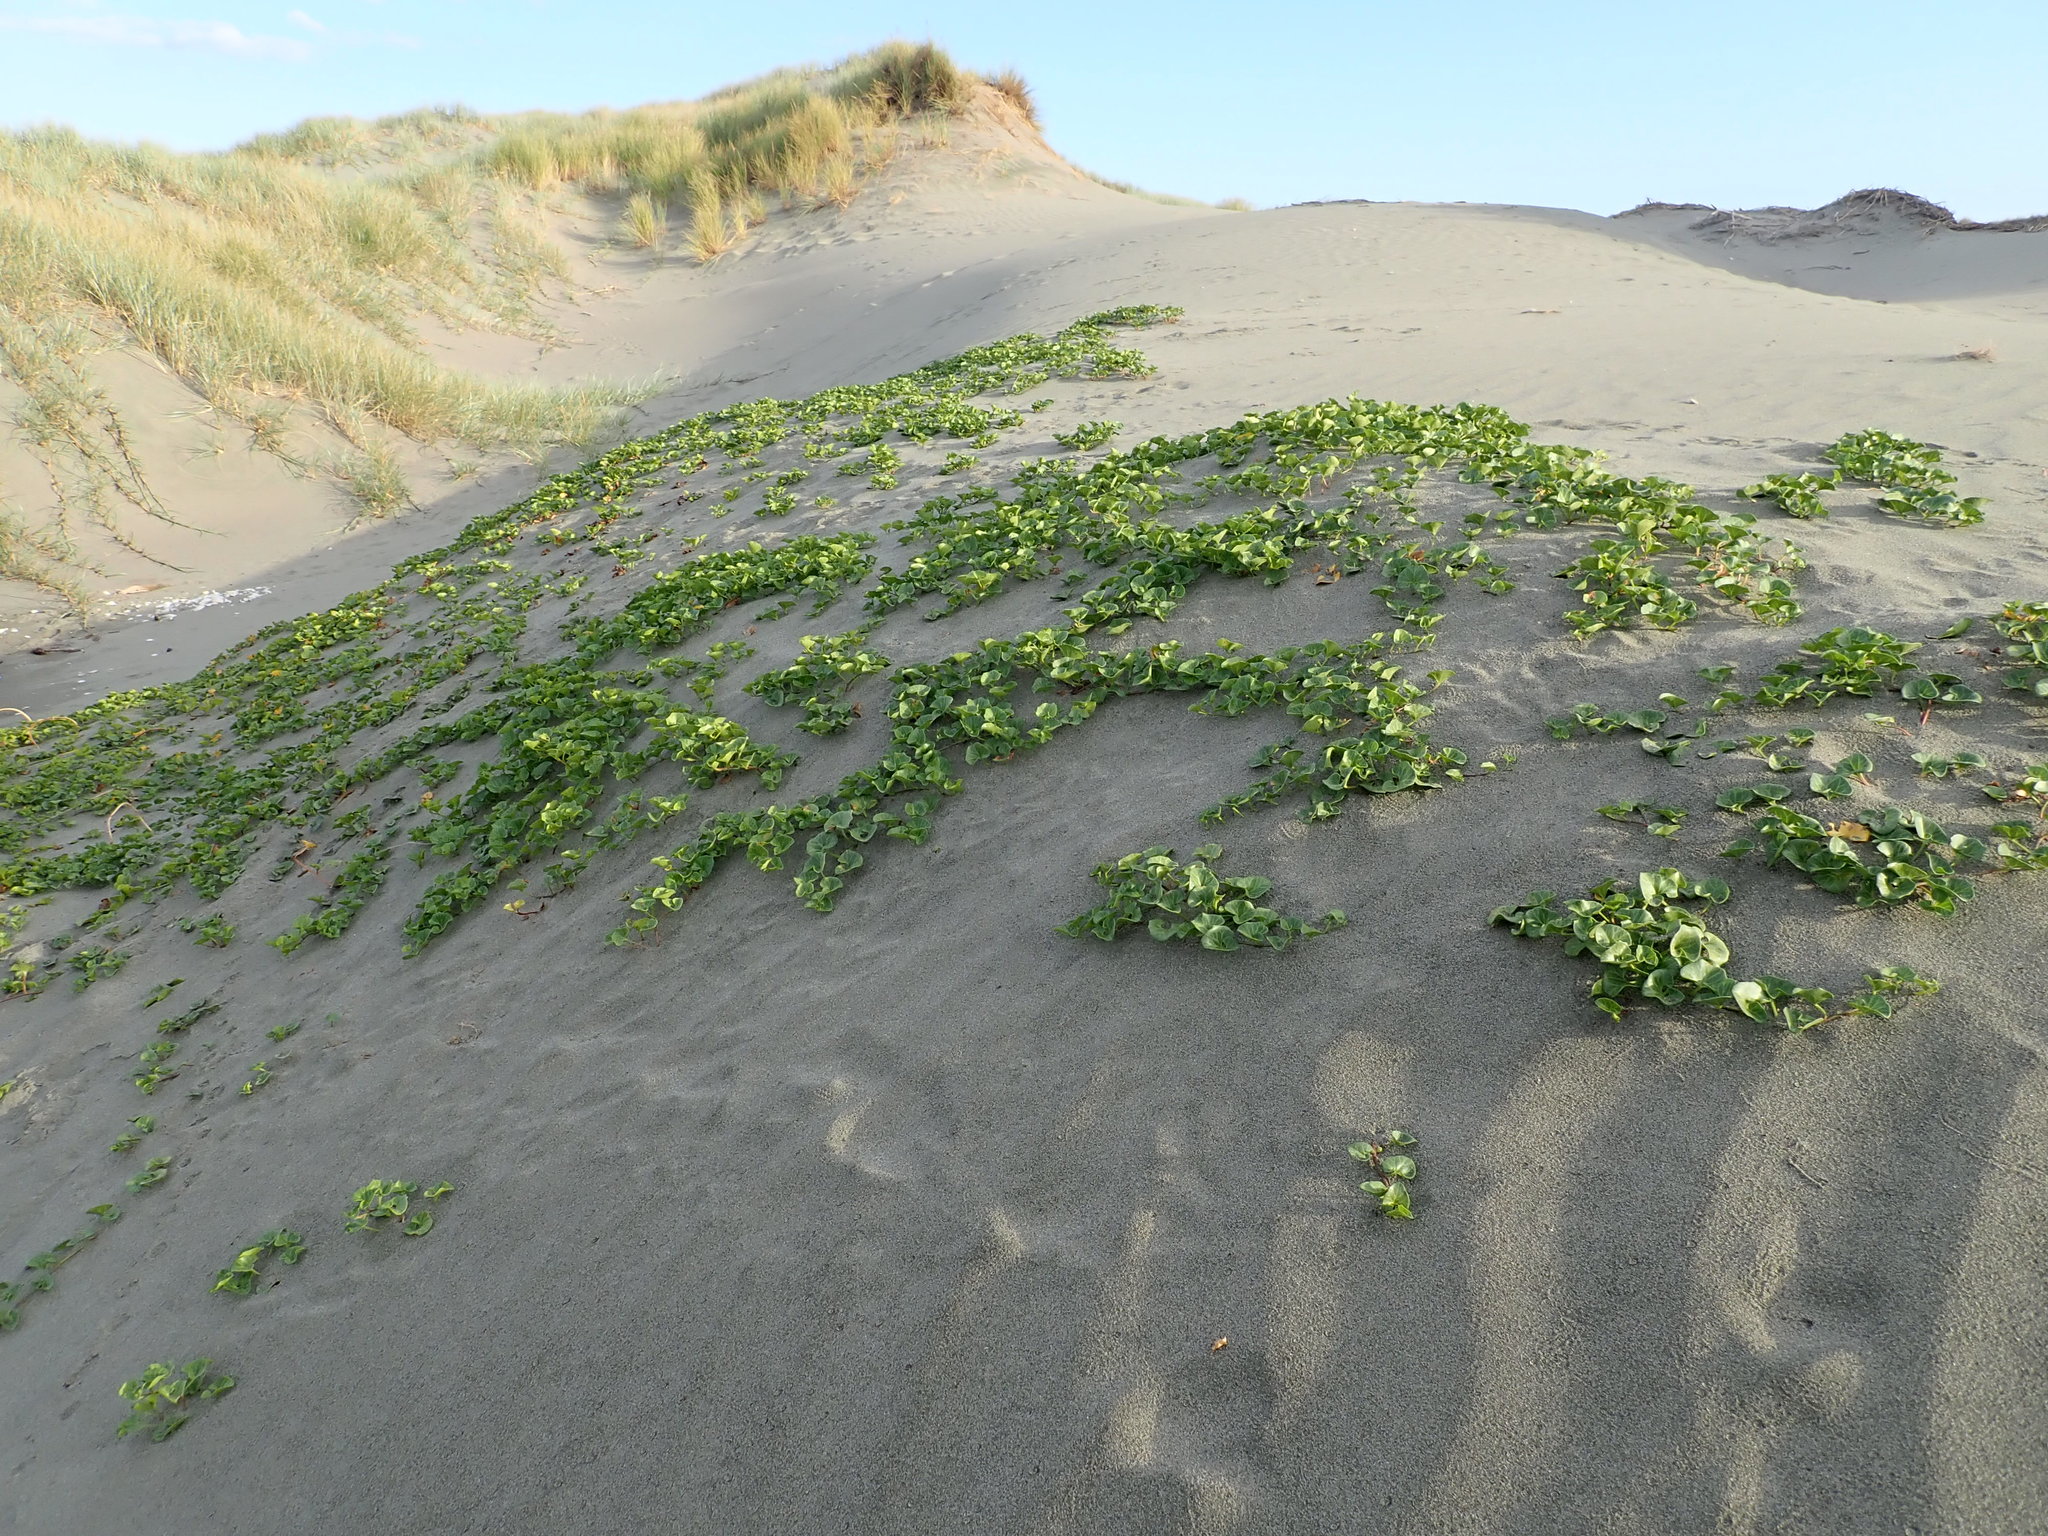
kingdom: Plantae
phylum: Tracheophyta
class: Magnoliopsida
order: Solanales
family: Convolvulaceae
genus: Calystegia
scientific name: Calystegia soldanella
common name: Sea bindweed
